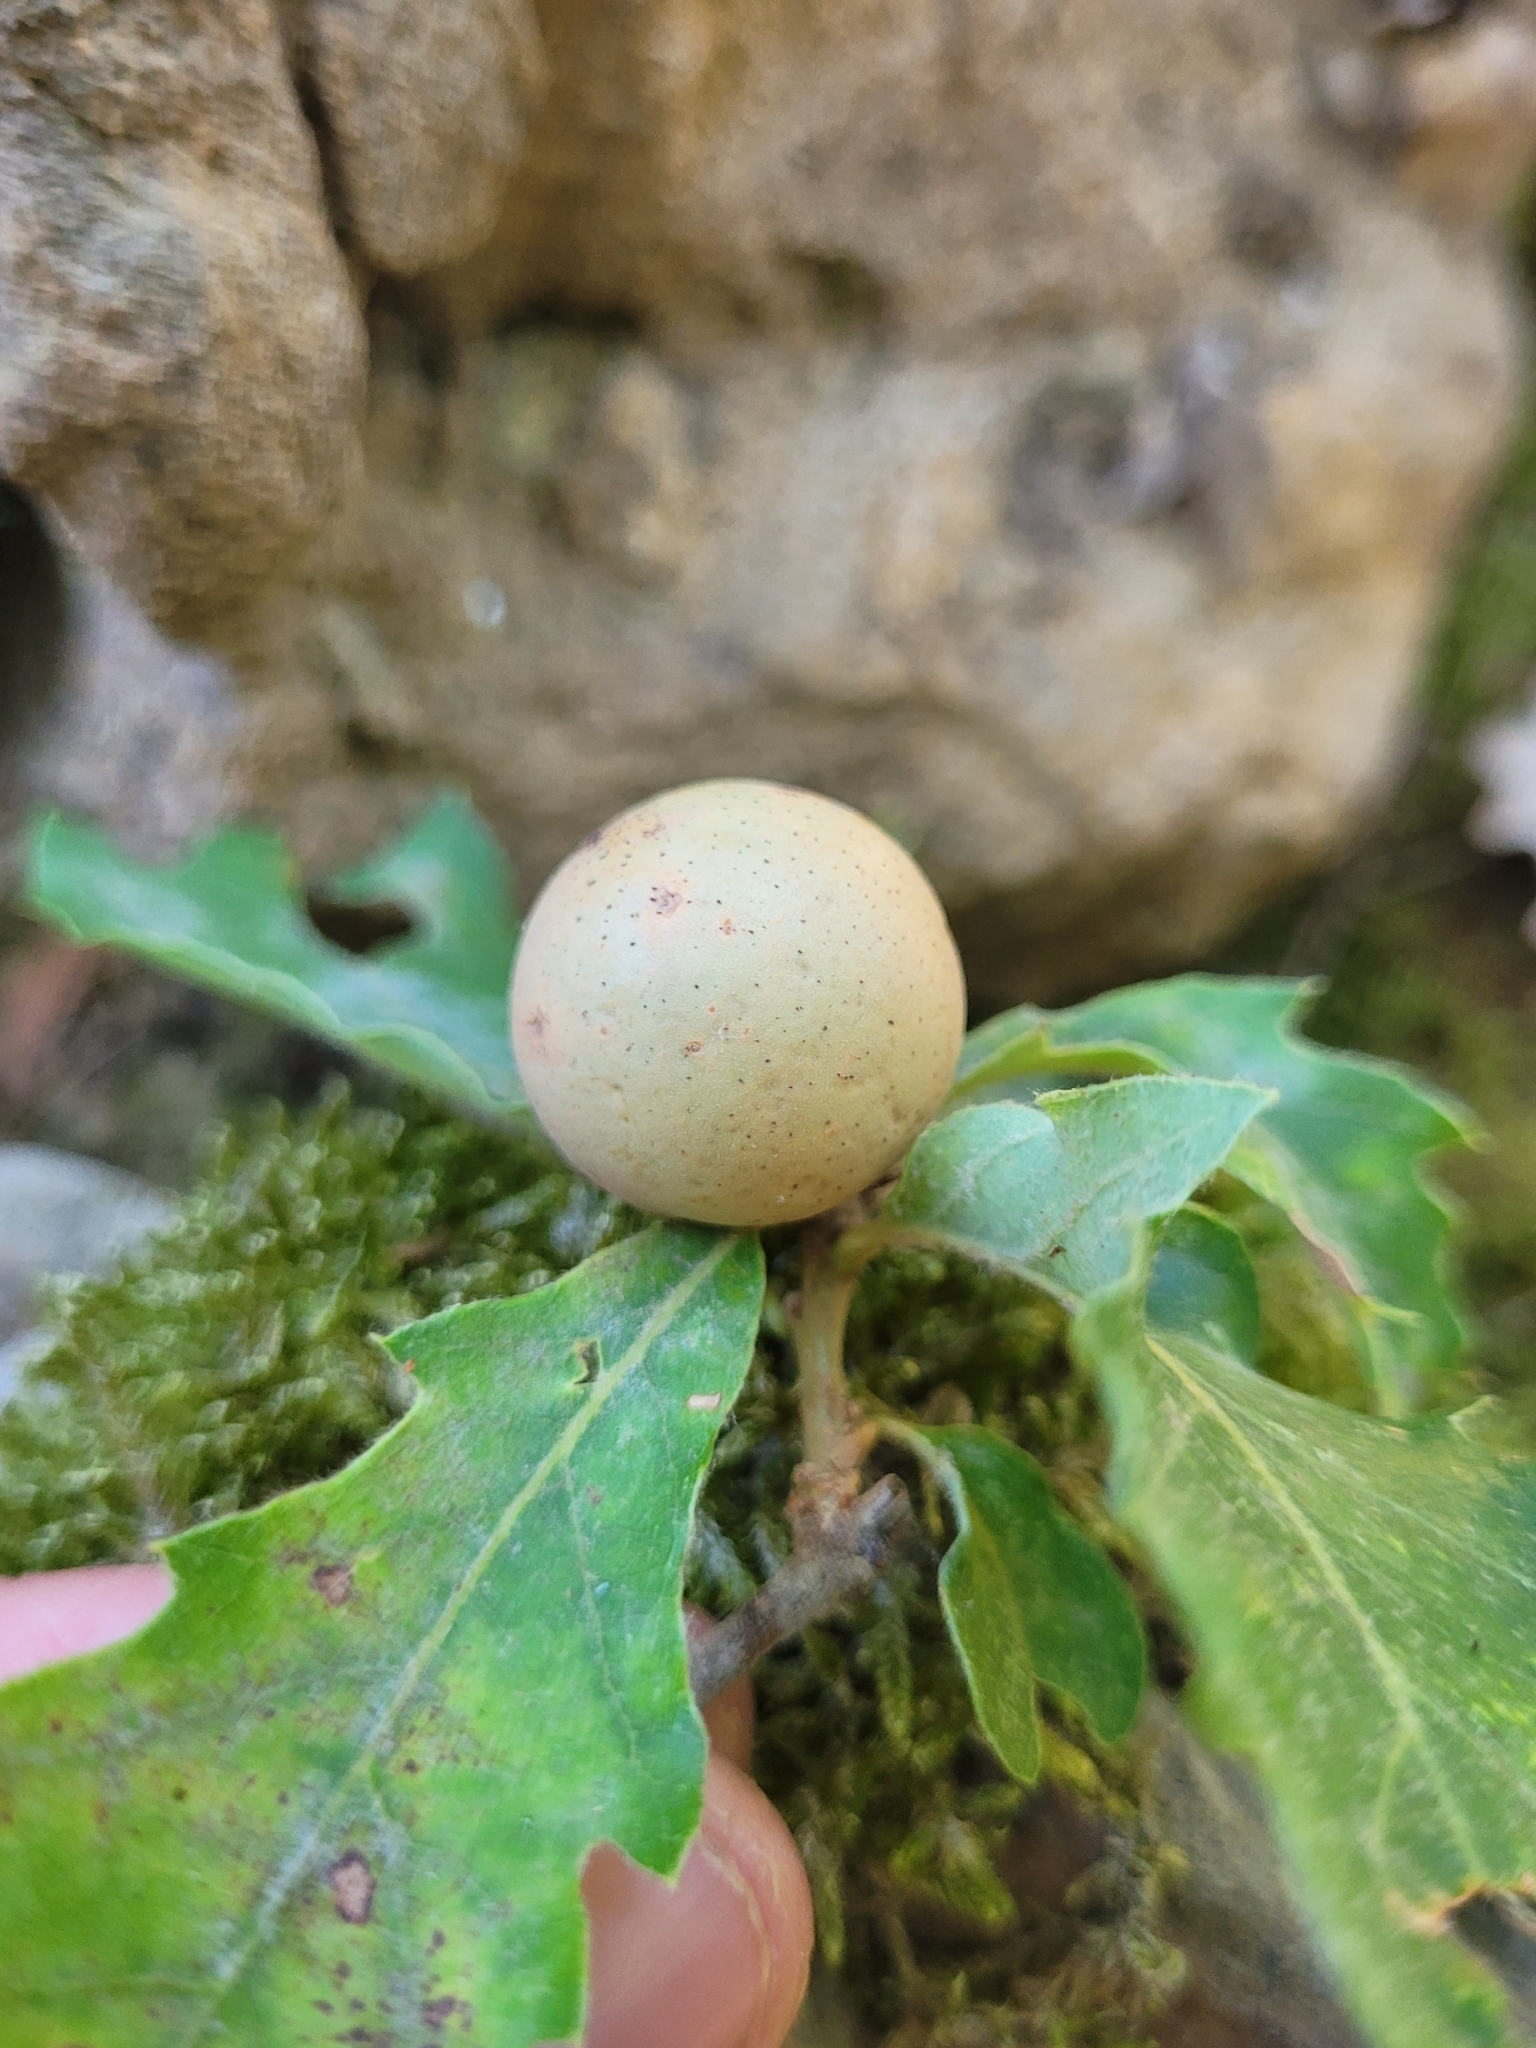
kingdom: Animalia
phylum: Arthropoda
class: Insecta
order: Hymenoptera
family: Cynipidae
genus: Andricus
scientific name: Andricus kollari
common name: Marble gall
